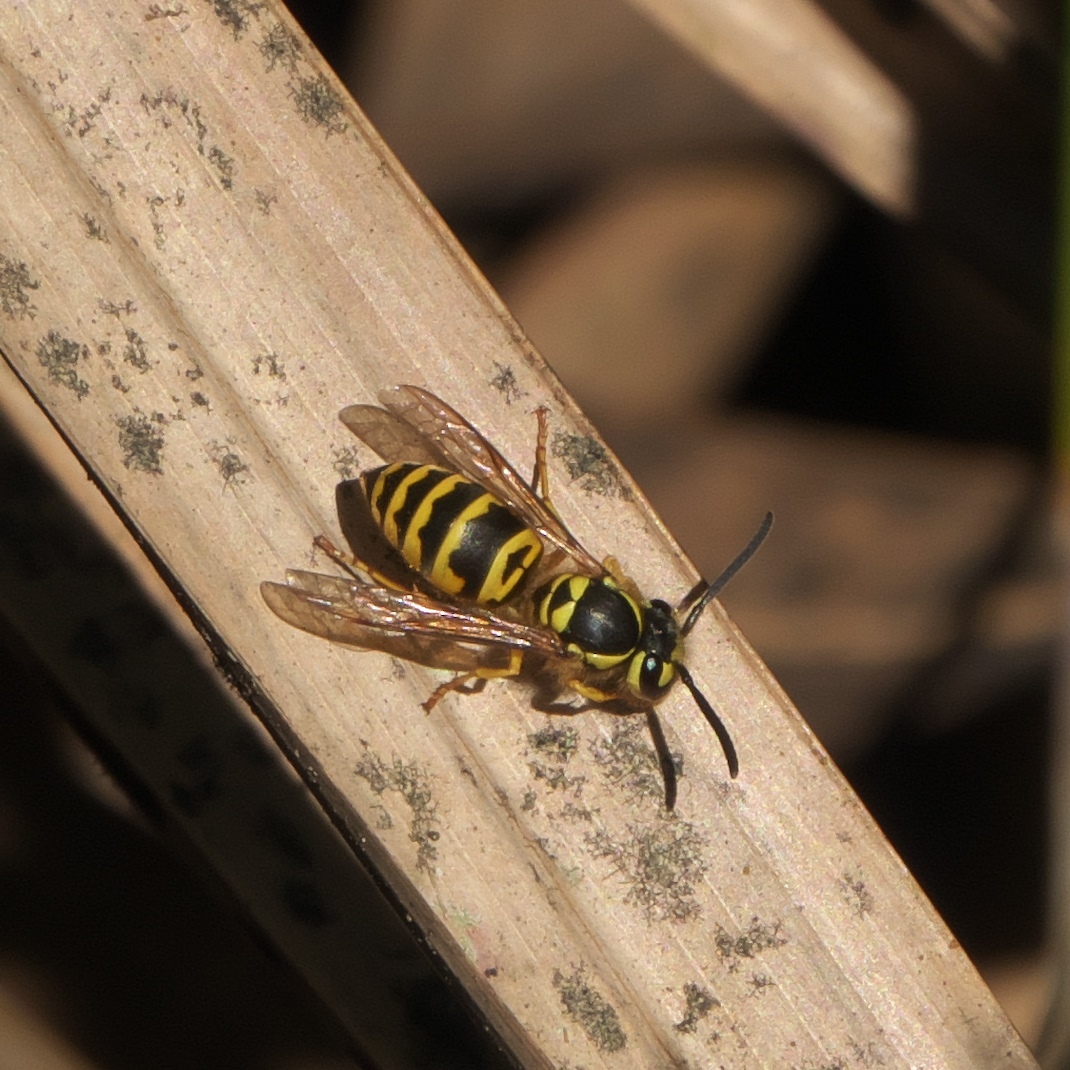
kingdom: Animalia
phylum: Arthropoda
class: Insecta
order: Hymenoptera
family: Vespidae
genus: Vespula
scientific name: Vespula maculifrons
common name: Eastern yellowjacket
